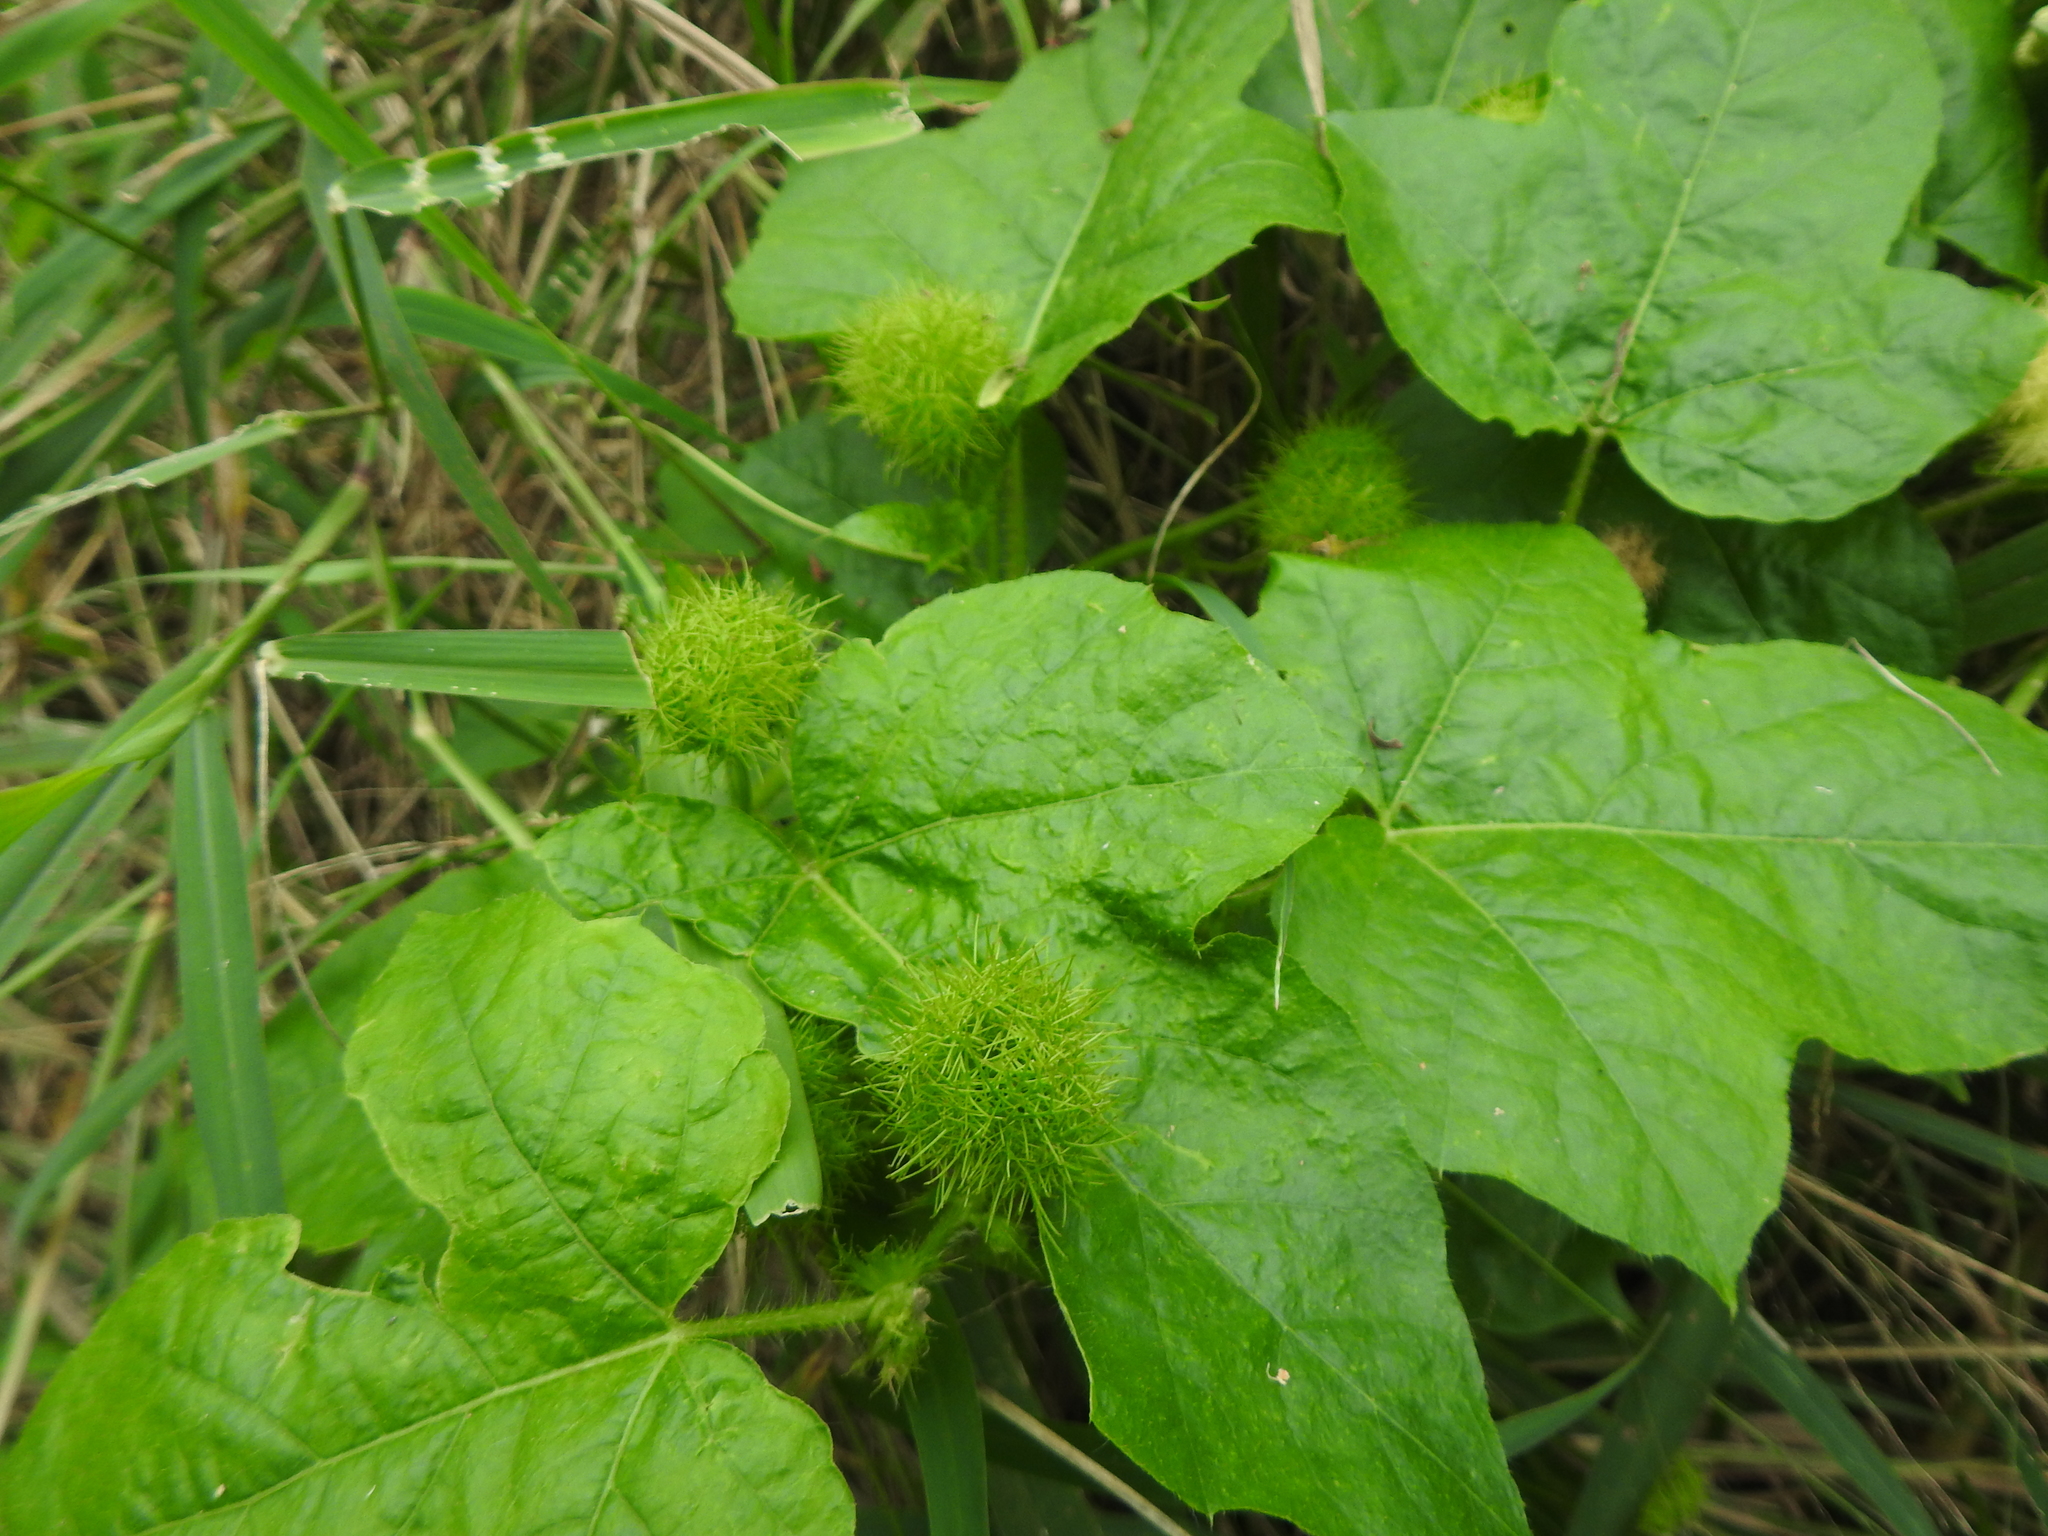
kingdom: Plantae
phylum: Tracheophyta
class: Magnoliopsida
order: Malpighiales
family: Passifloraceae
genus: Passiflora
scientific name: Passiflora vesicaria
